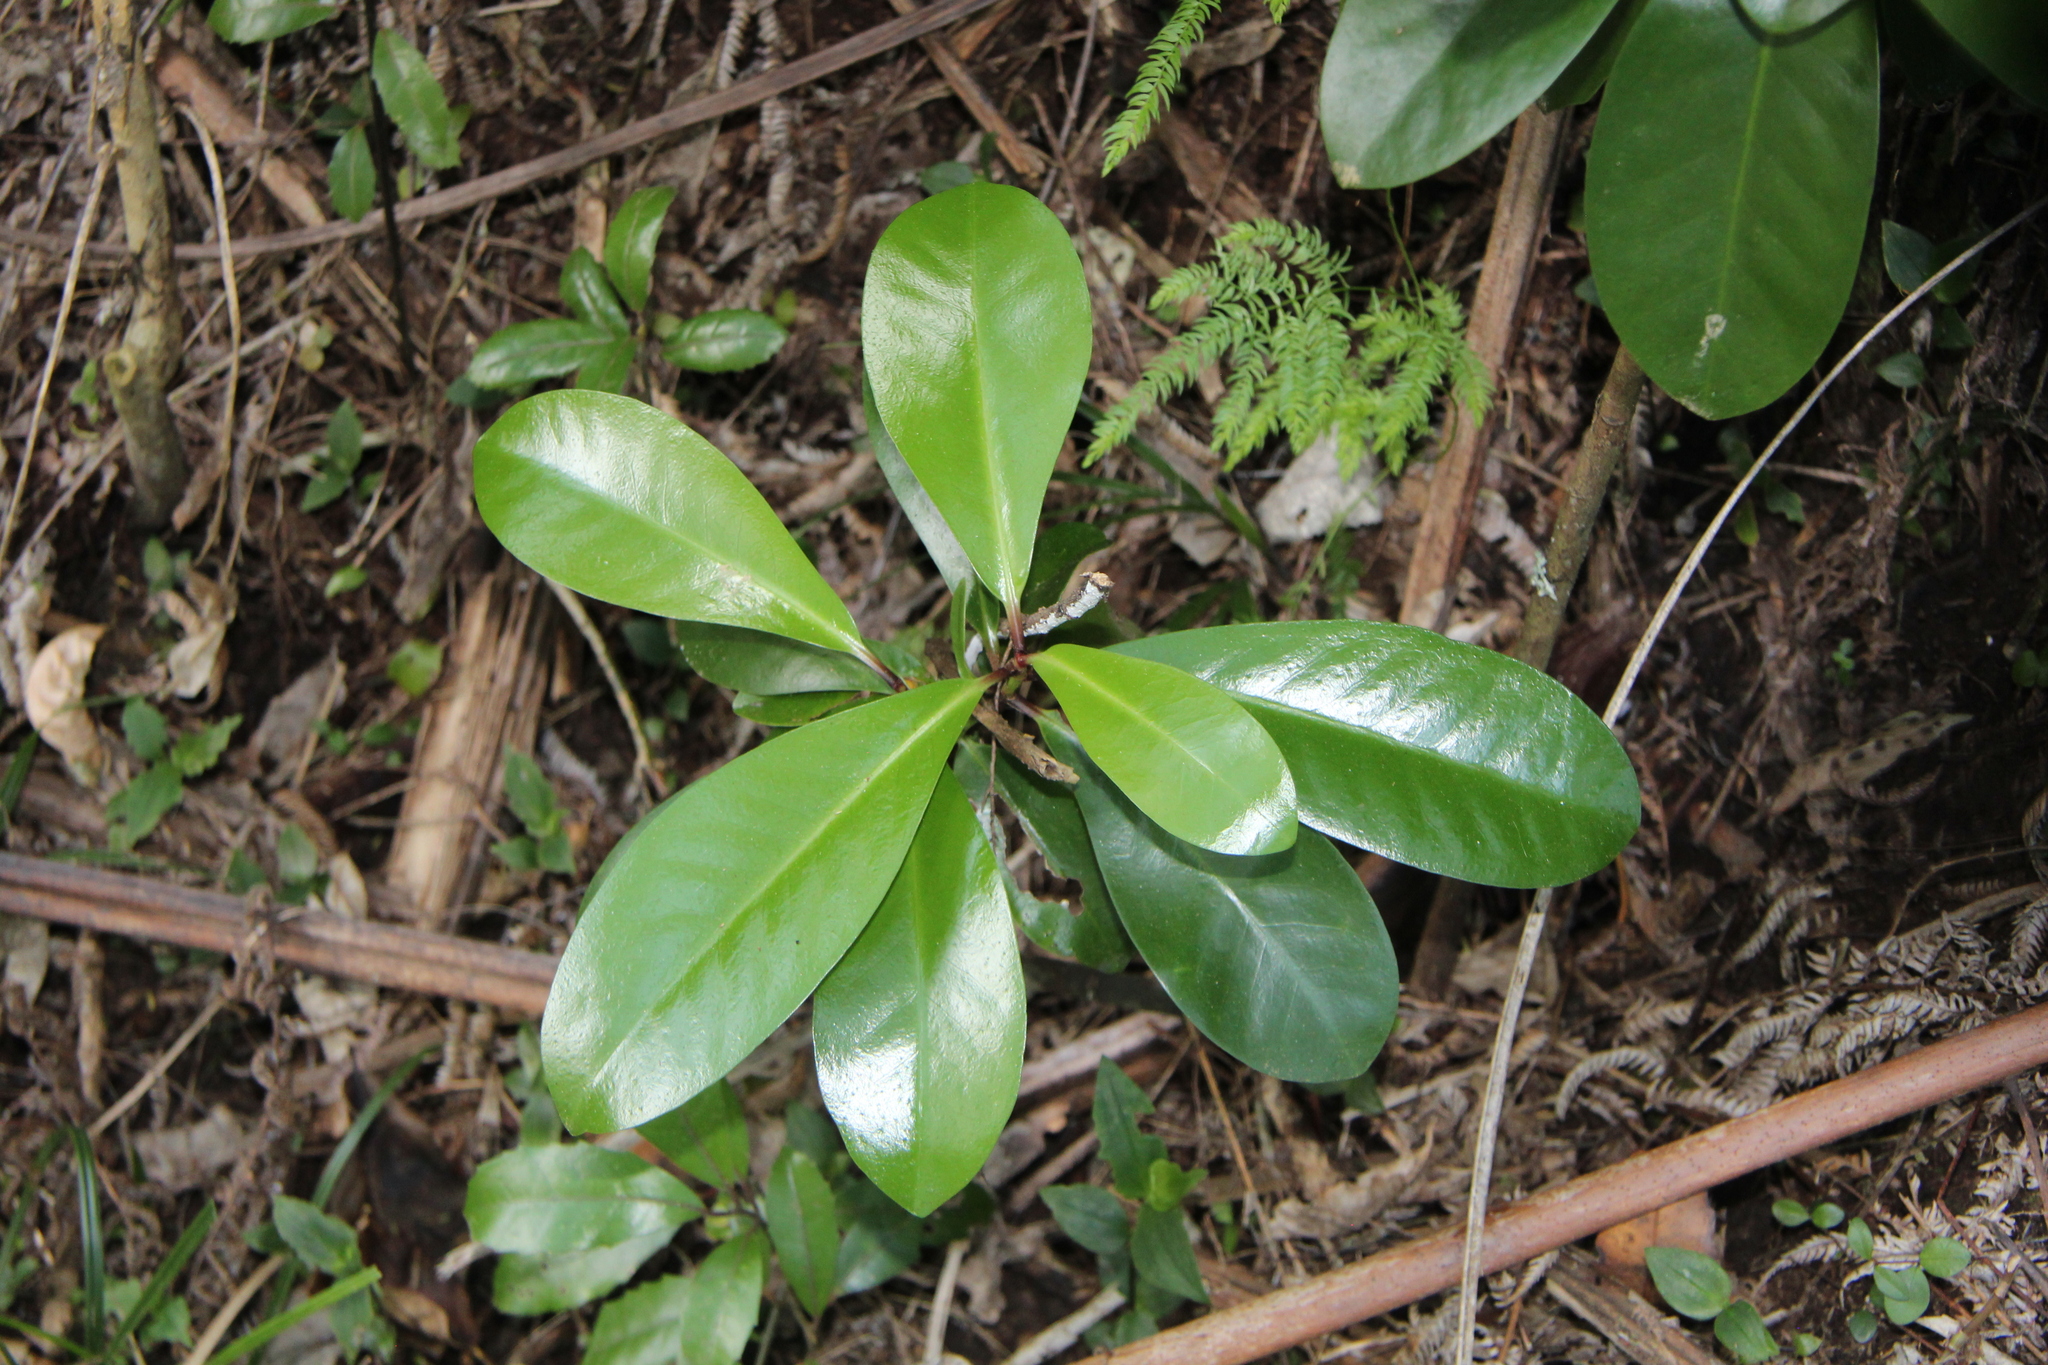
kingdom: Plantae
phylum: Tracheophyta
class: Magnoliopsida
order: Cucurbitales
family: Corynocarpaceae
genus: Corynocarpus
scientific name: Corynocarpus laevigatus
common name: New zealand laurel
